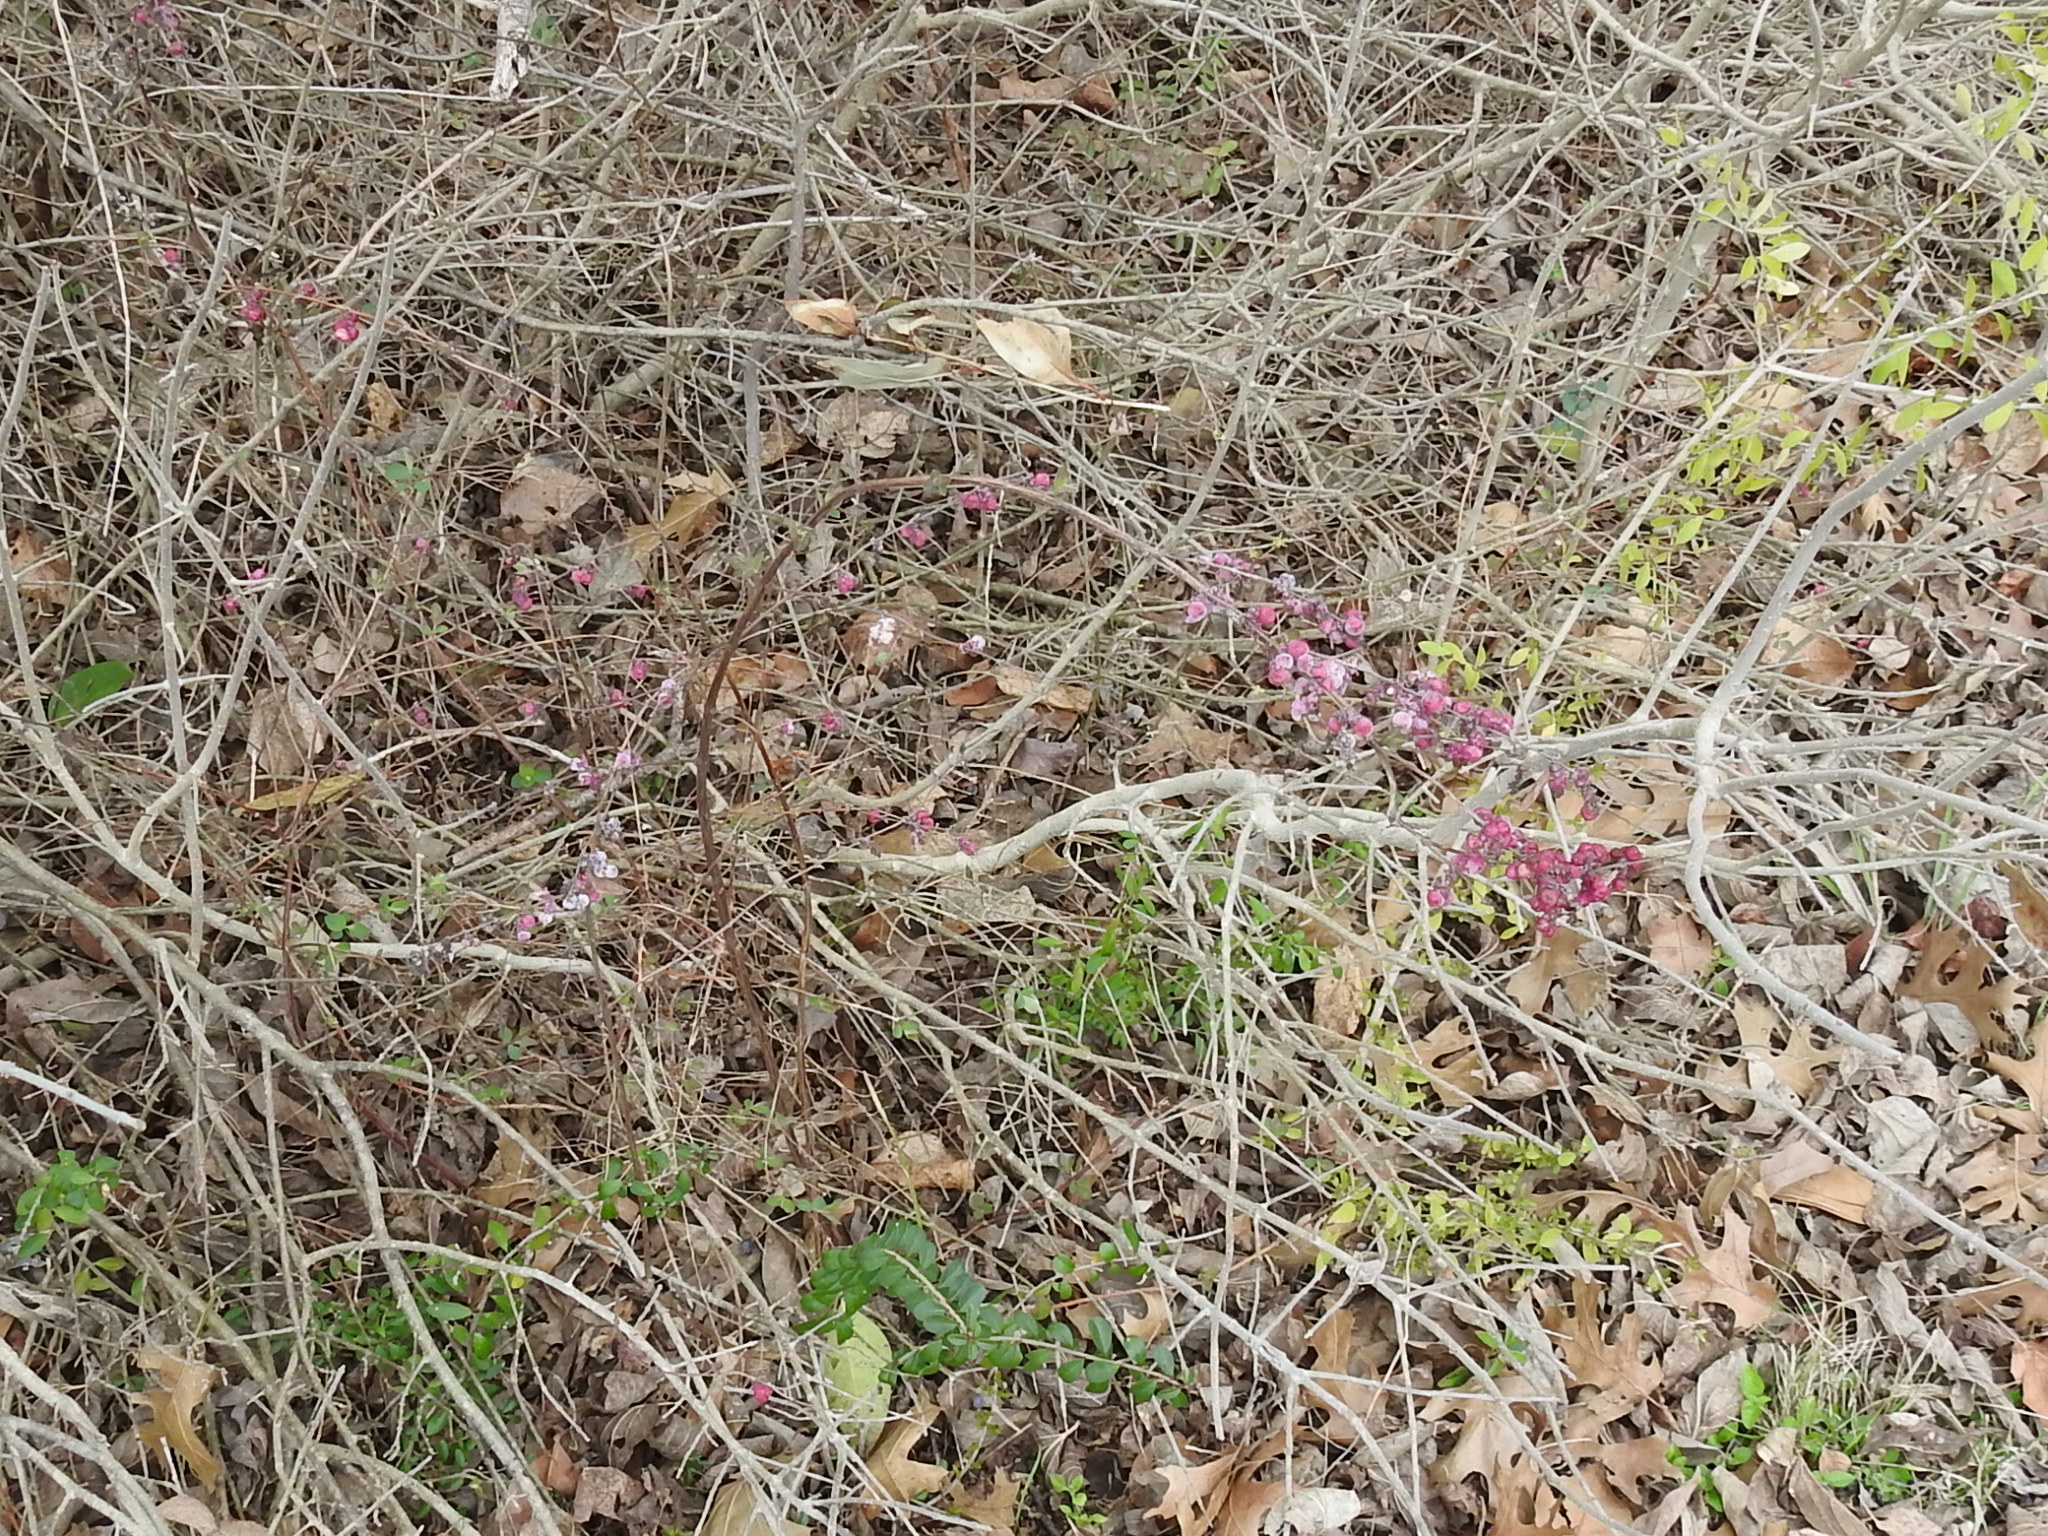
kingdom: Plantae
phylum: Tracheophyta
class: Magnoliopsida
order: Dipsacales
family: Caprifoliaceae
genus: Symphoricarpos
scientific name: Symphoricarpos orbiculatus
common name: Coralberry
